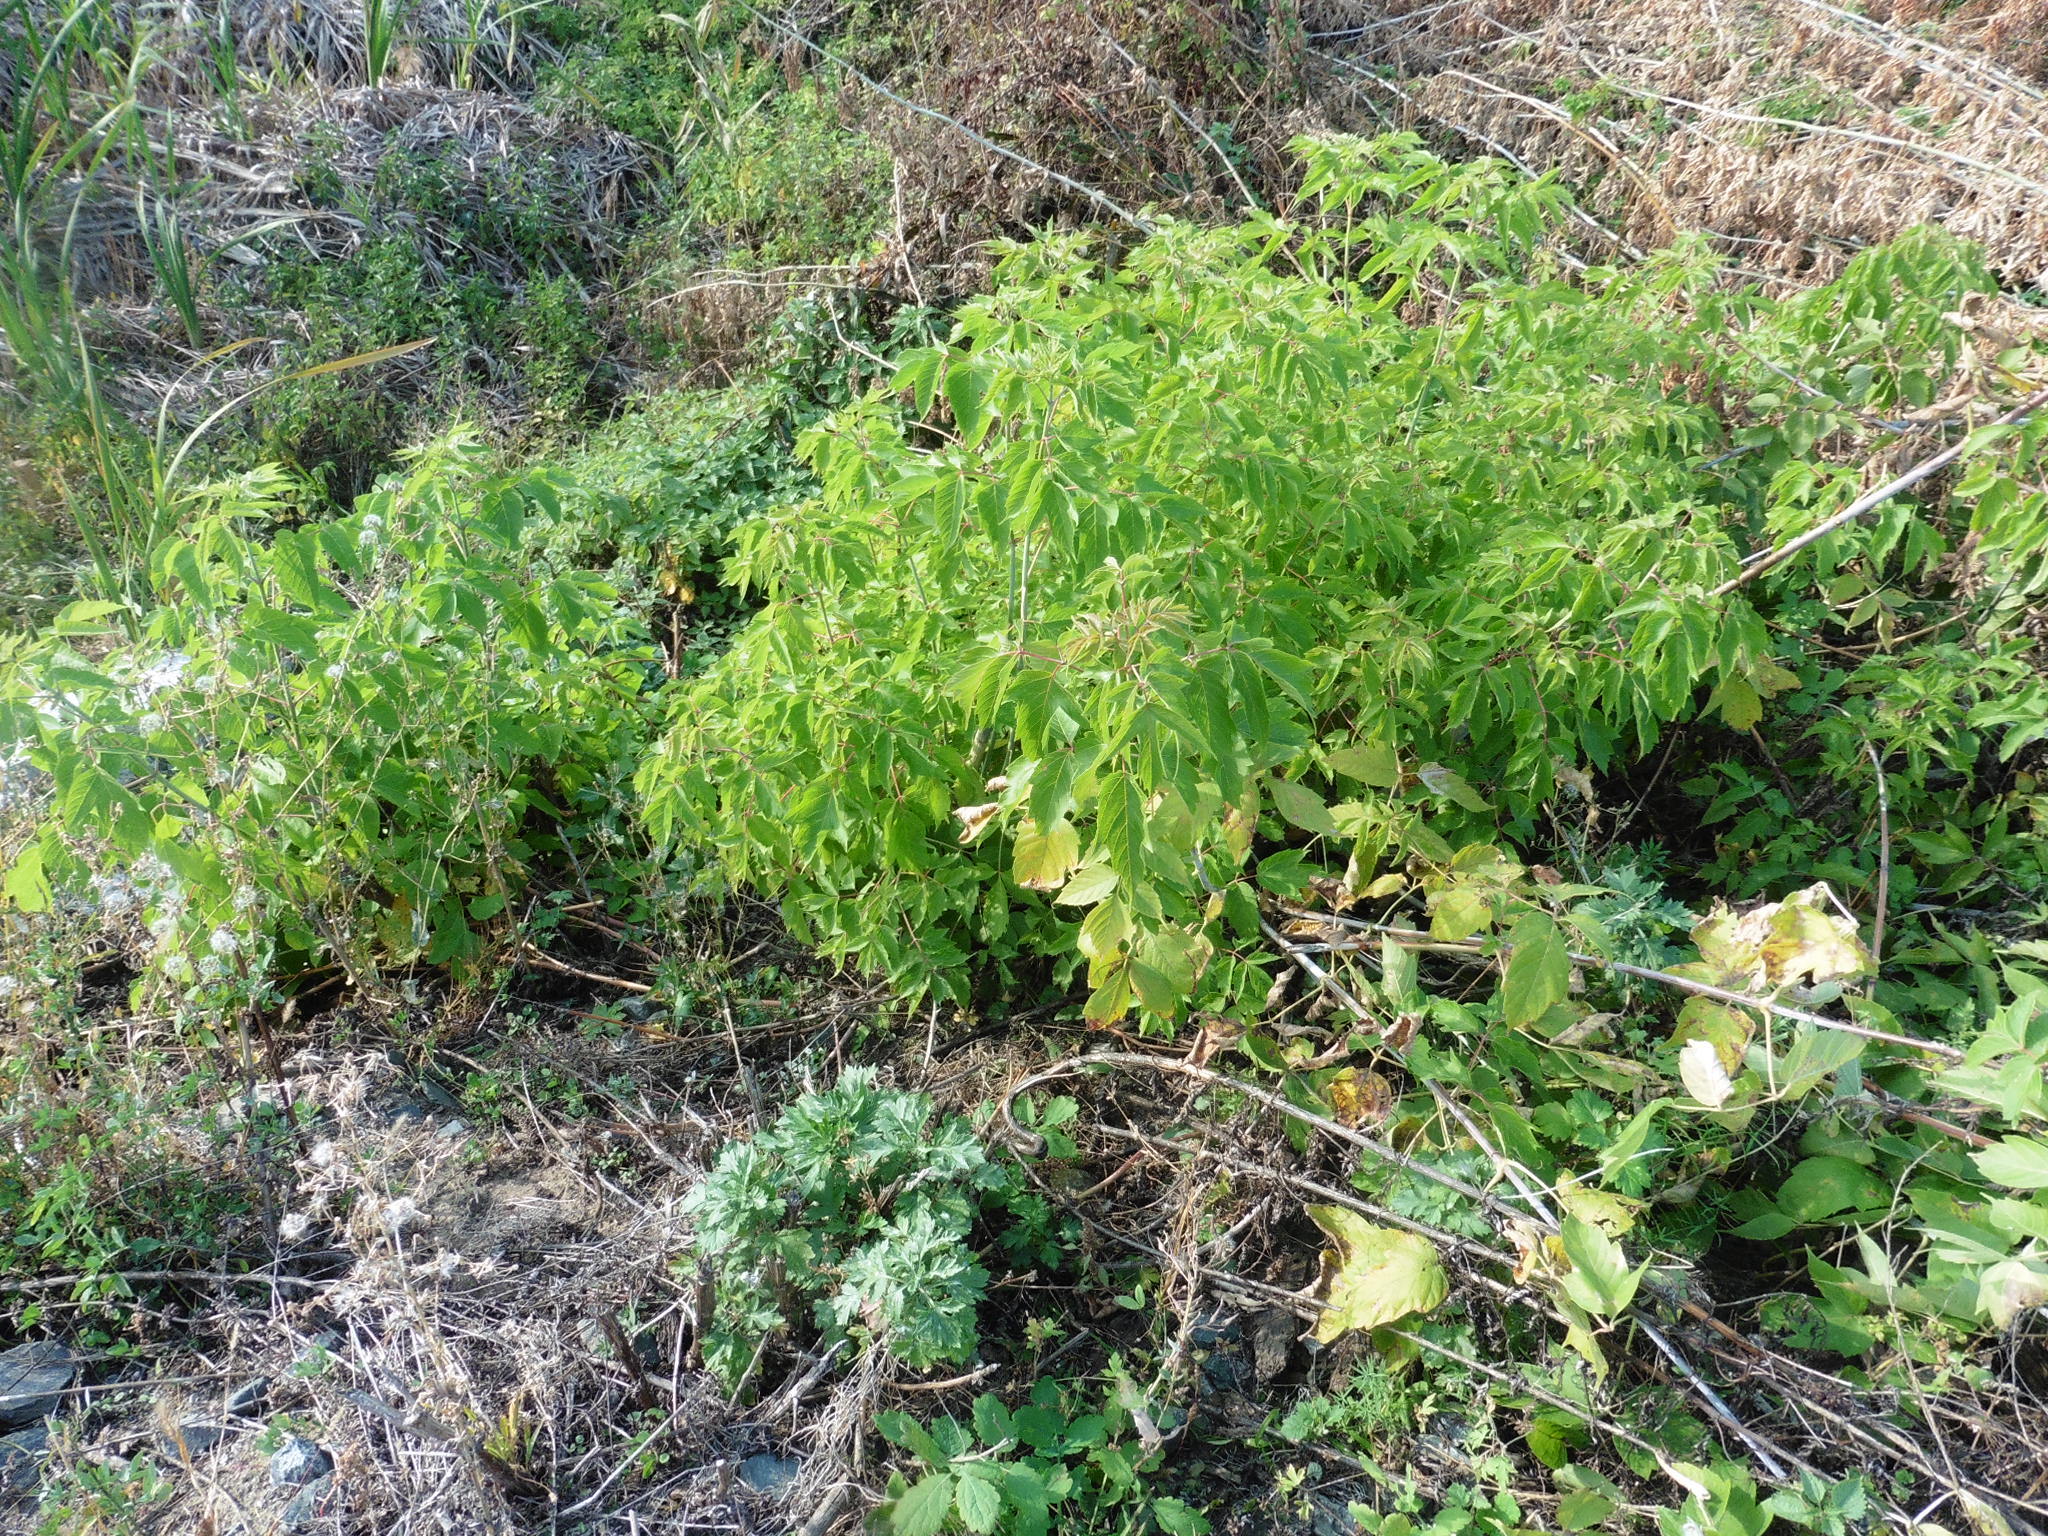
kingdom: Plantae
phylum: Tracheophyta
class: Magnoliopsida
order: Sapindales
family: Sapindaceae
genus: Acer
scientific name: Acer negundo
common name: Ashleaf maple
